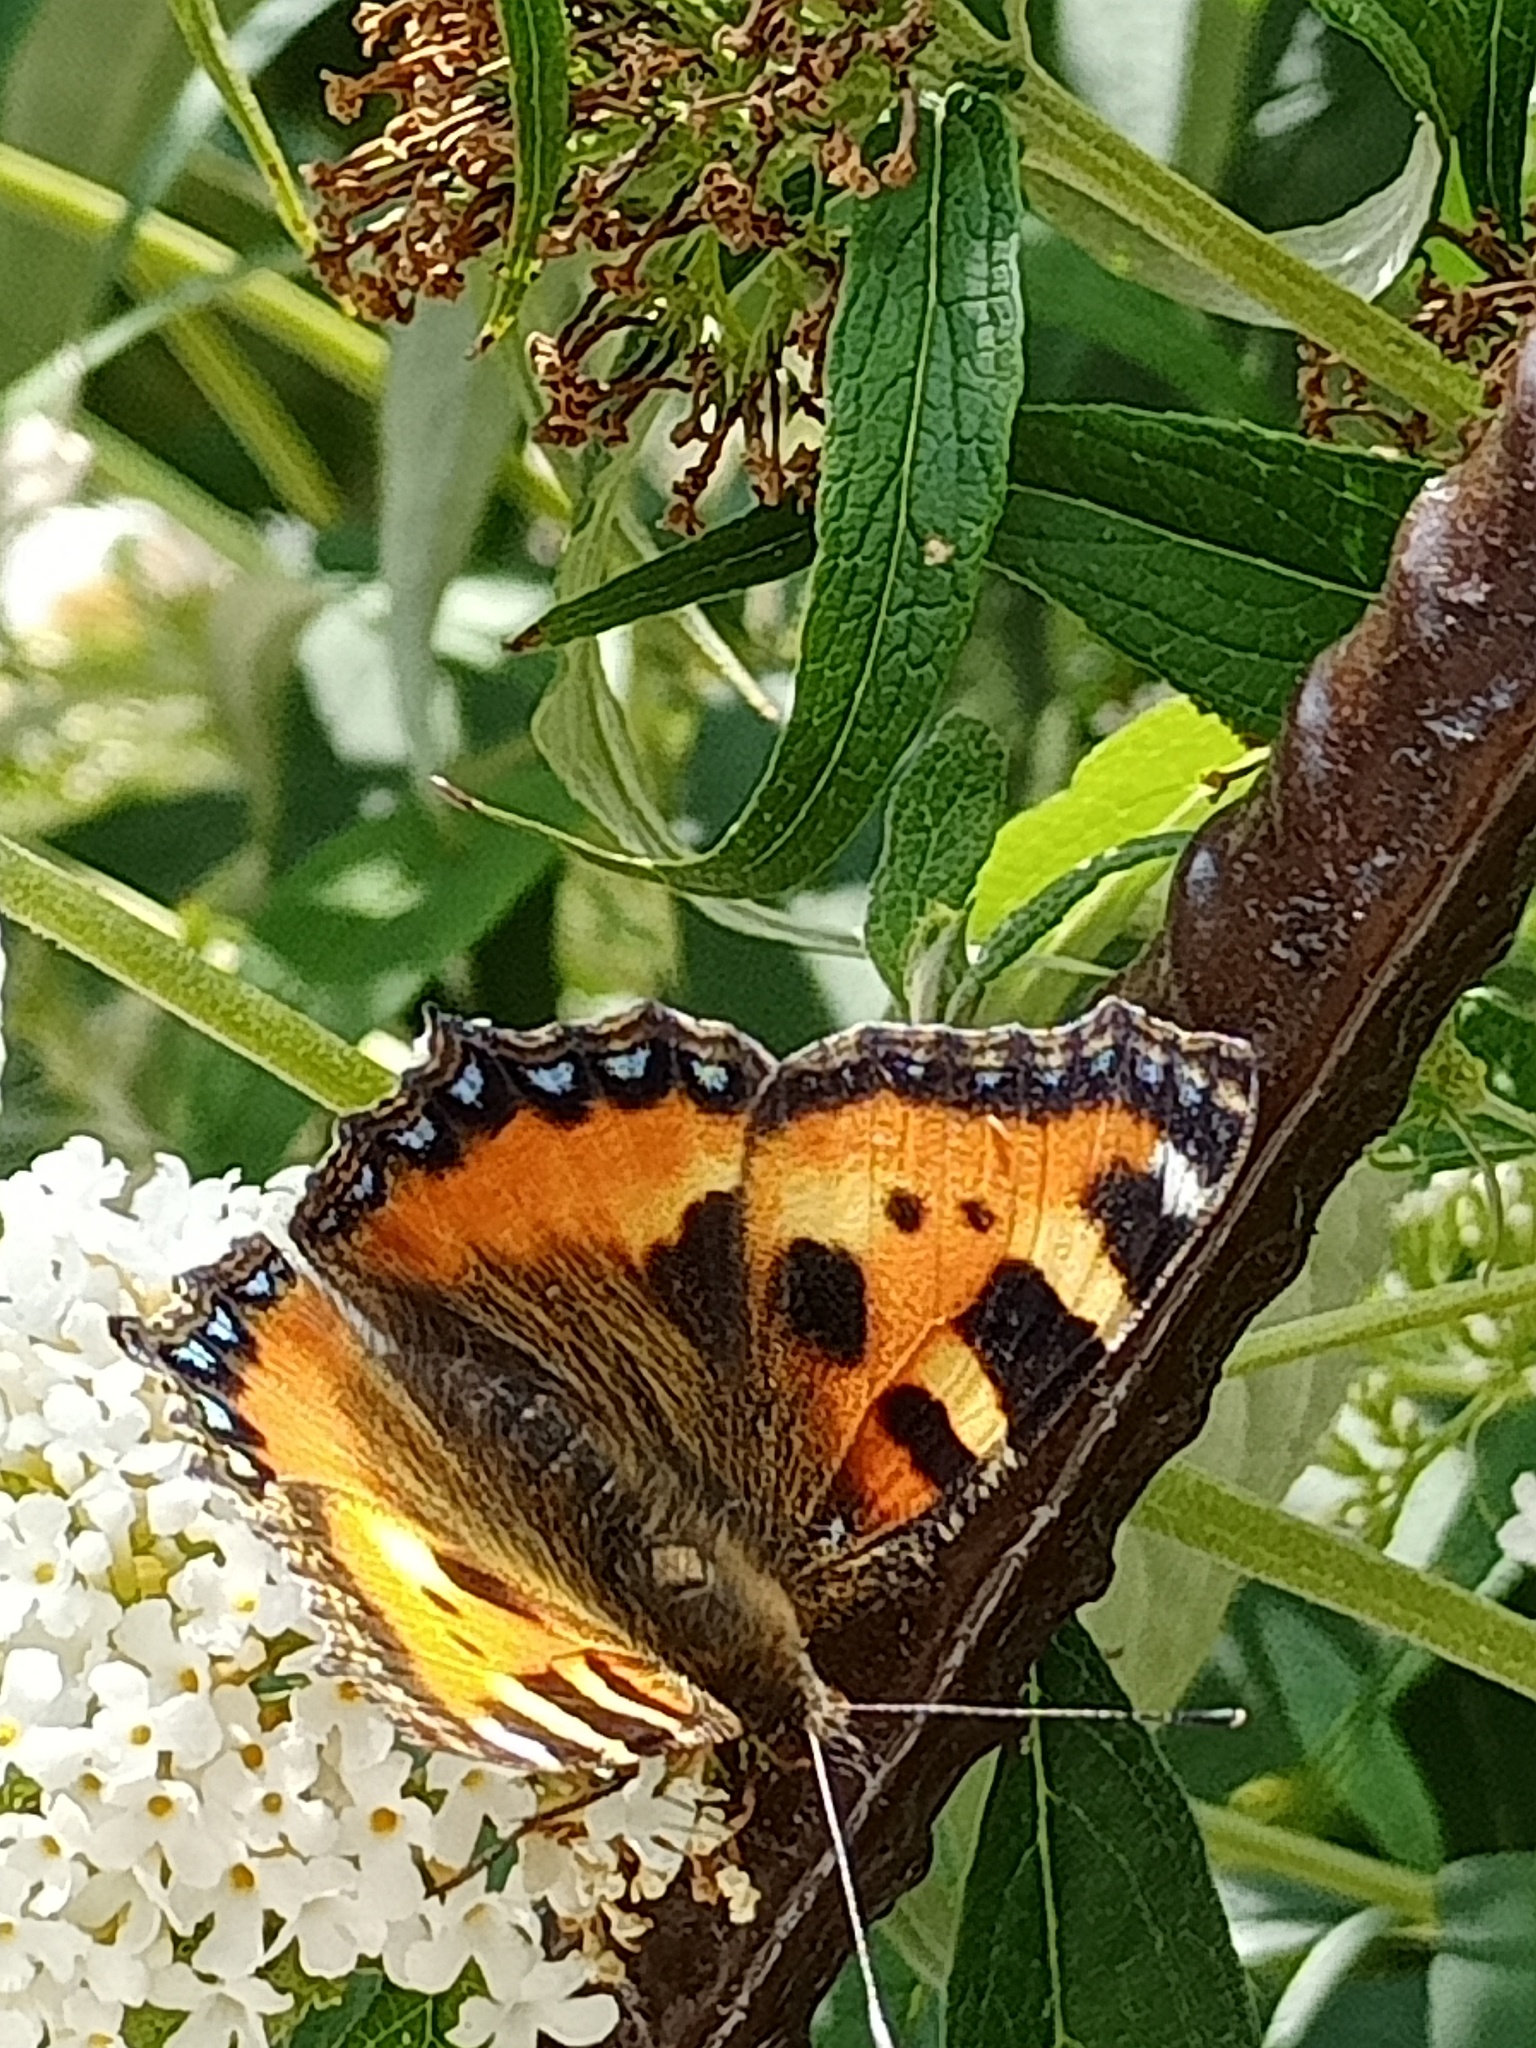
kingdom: Animalia
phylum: Arthropoda
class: Insecta
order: Lepidoptera
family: Nymphalidae
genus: Aglais
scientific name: Aglais urticae
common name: Small tortoiseshell
